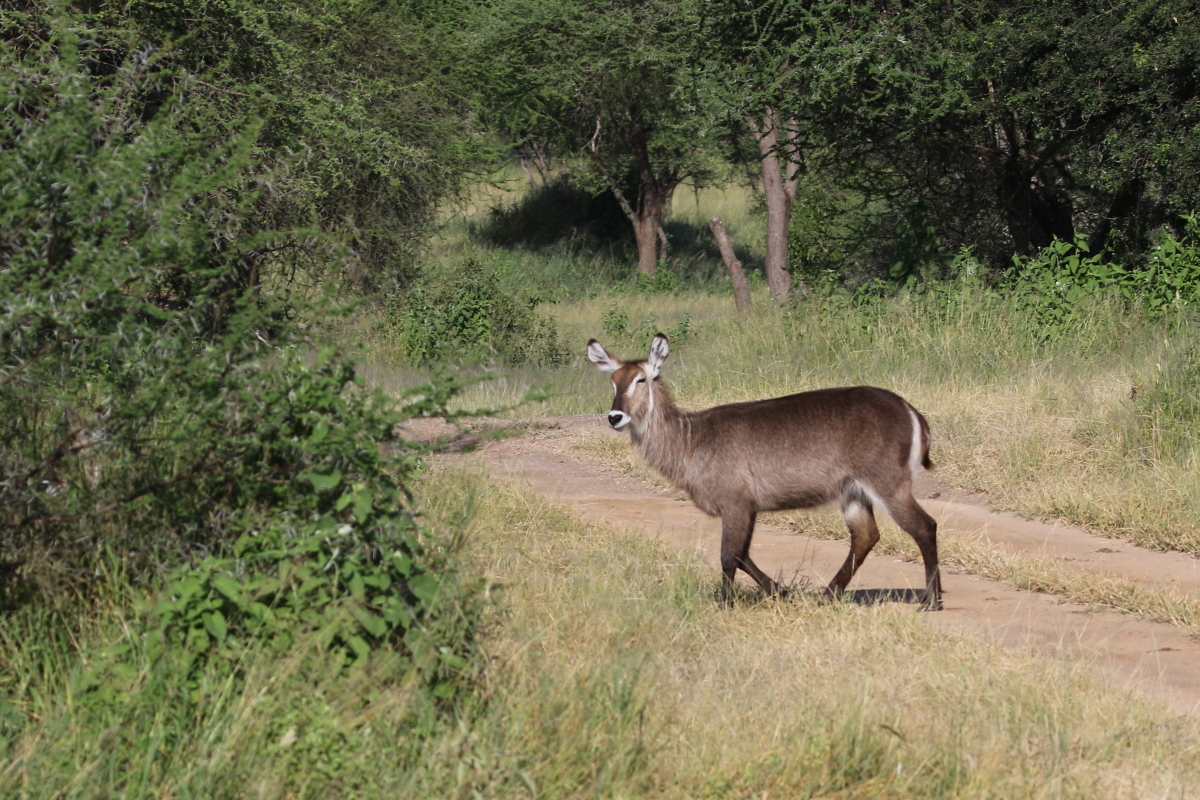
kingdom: Animalia
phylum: Chordata
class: Mammalia
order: Artiodactyla
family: Bovidae
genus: Kobus
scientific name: Kobus ellipsiprymnus
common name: Waterbuck
